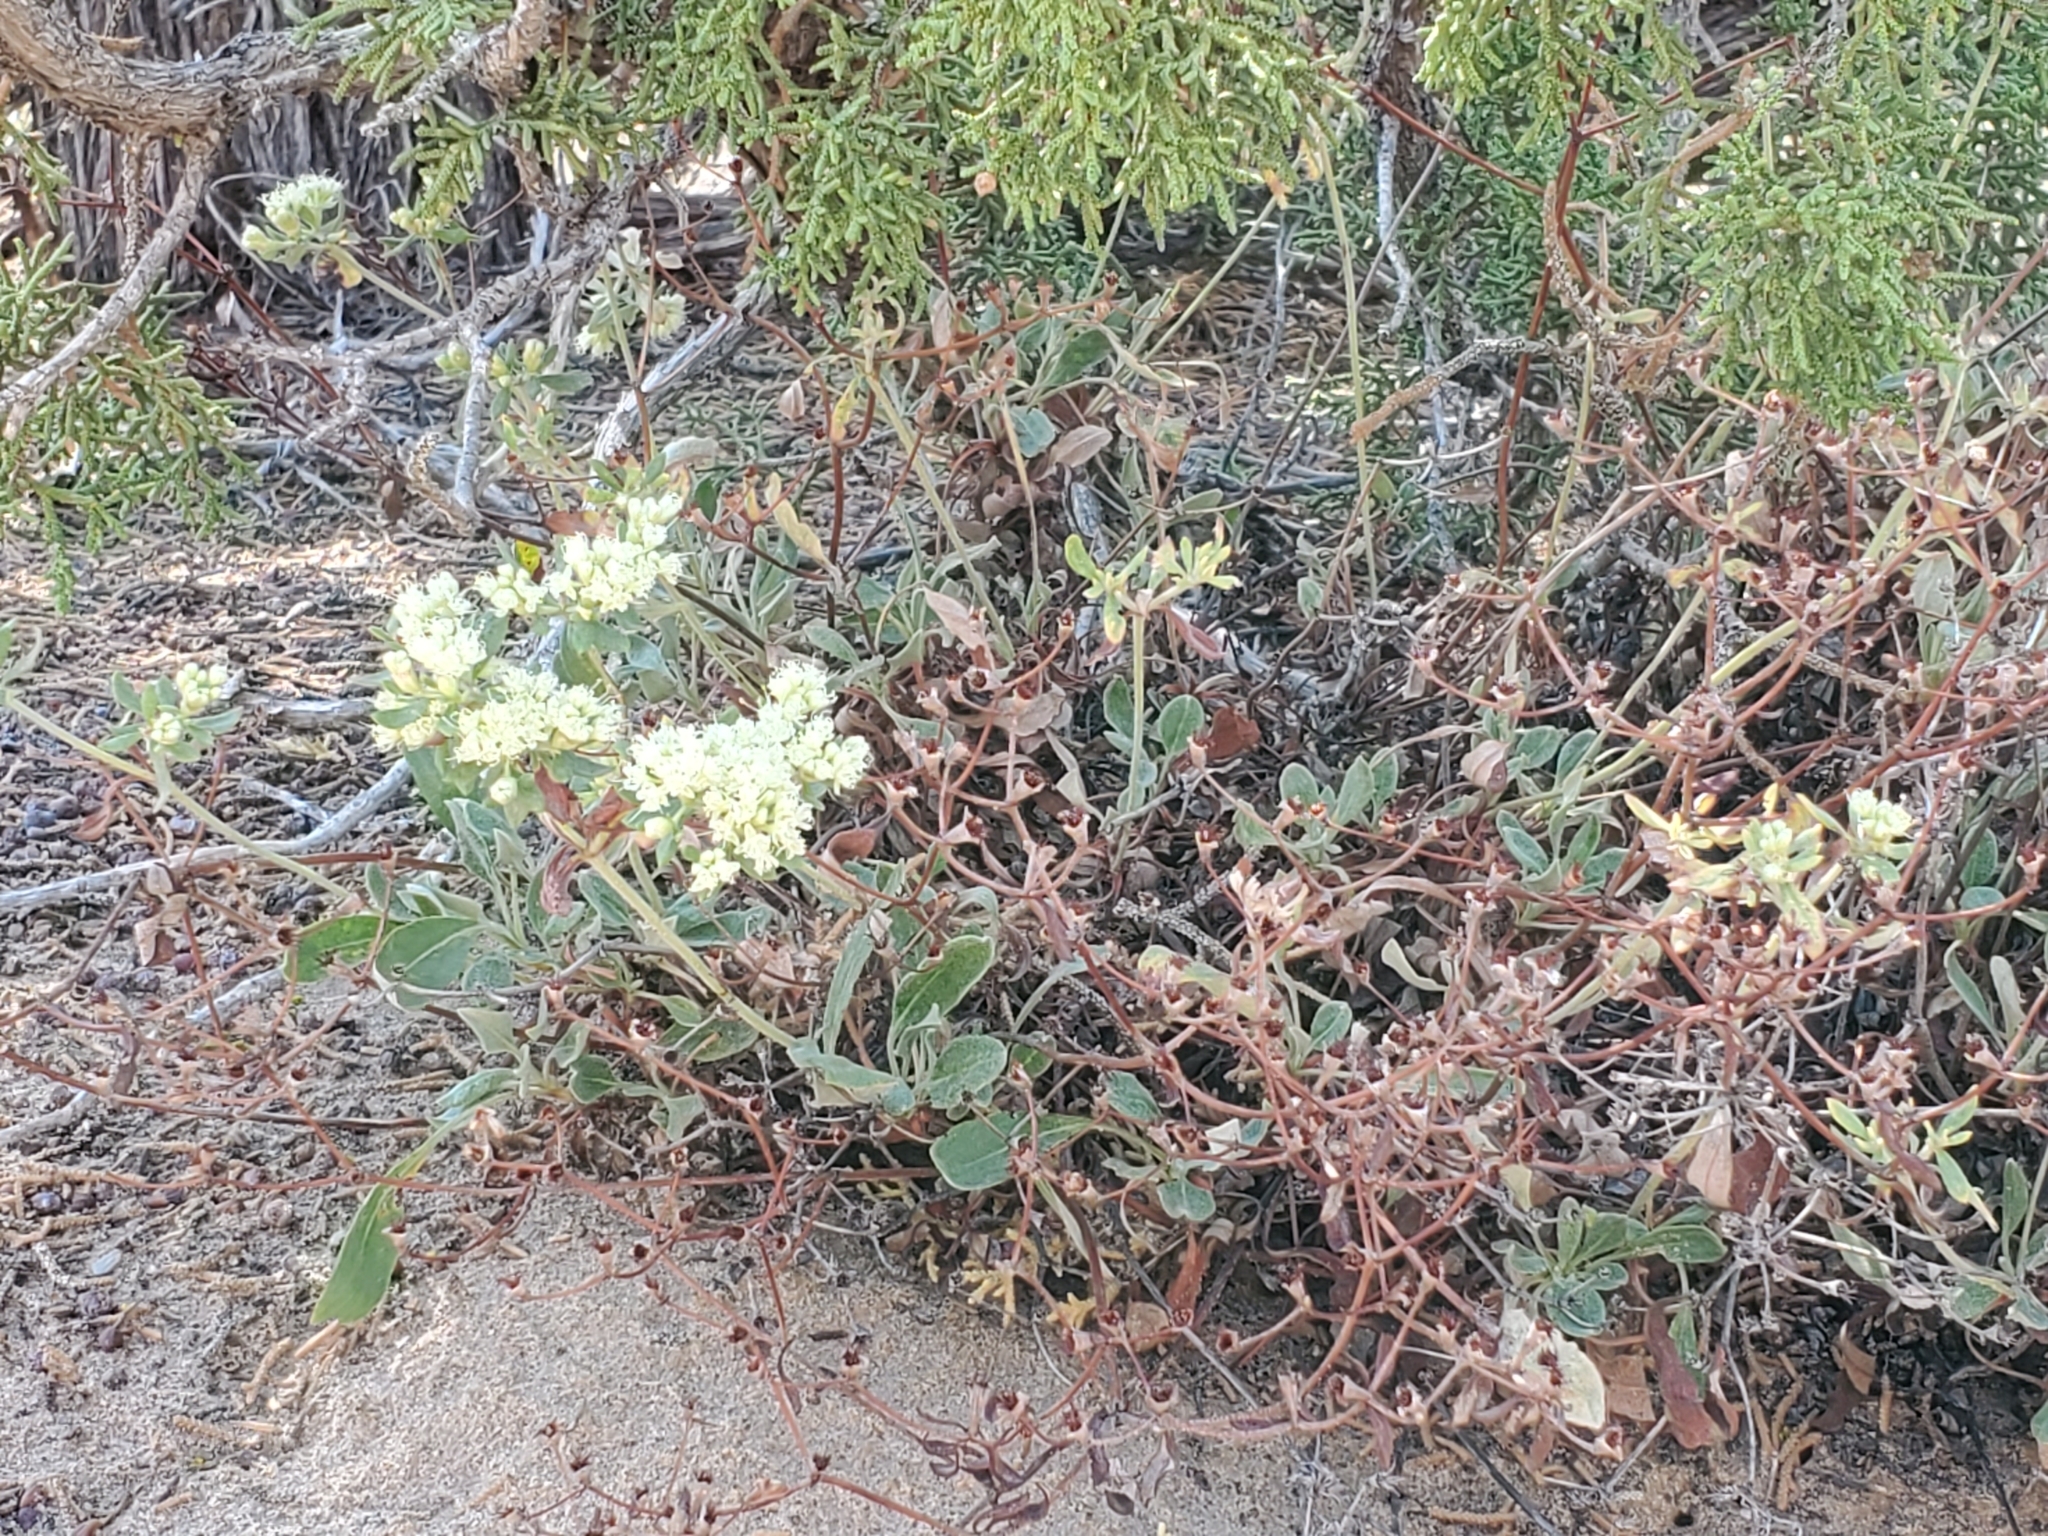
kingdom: Plantae
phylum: Tracheophyta
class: Magnoliopsida
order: Caryophyllales
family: Polygonaceae
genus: Eriogonum
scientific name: Eriogonum jamesii
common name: Antelope-sage
